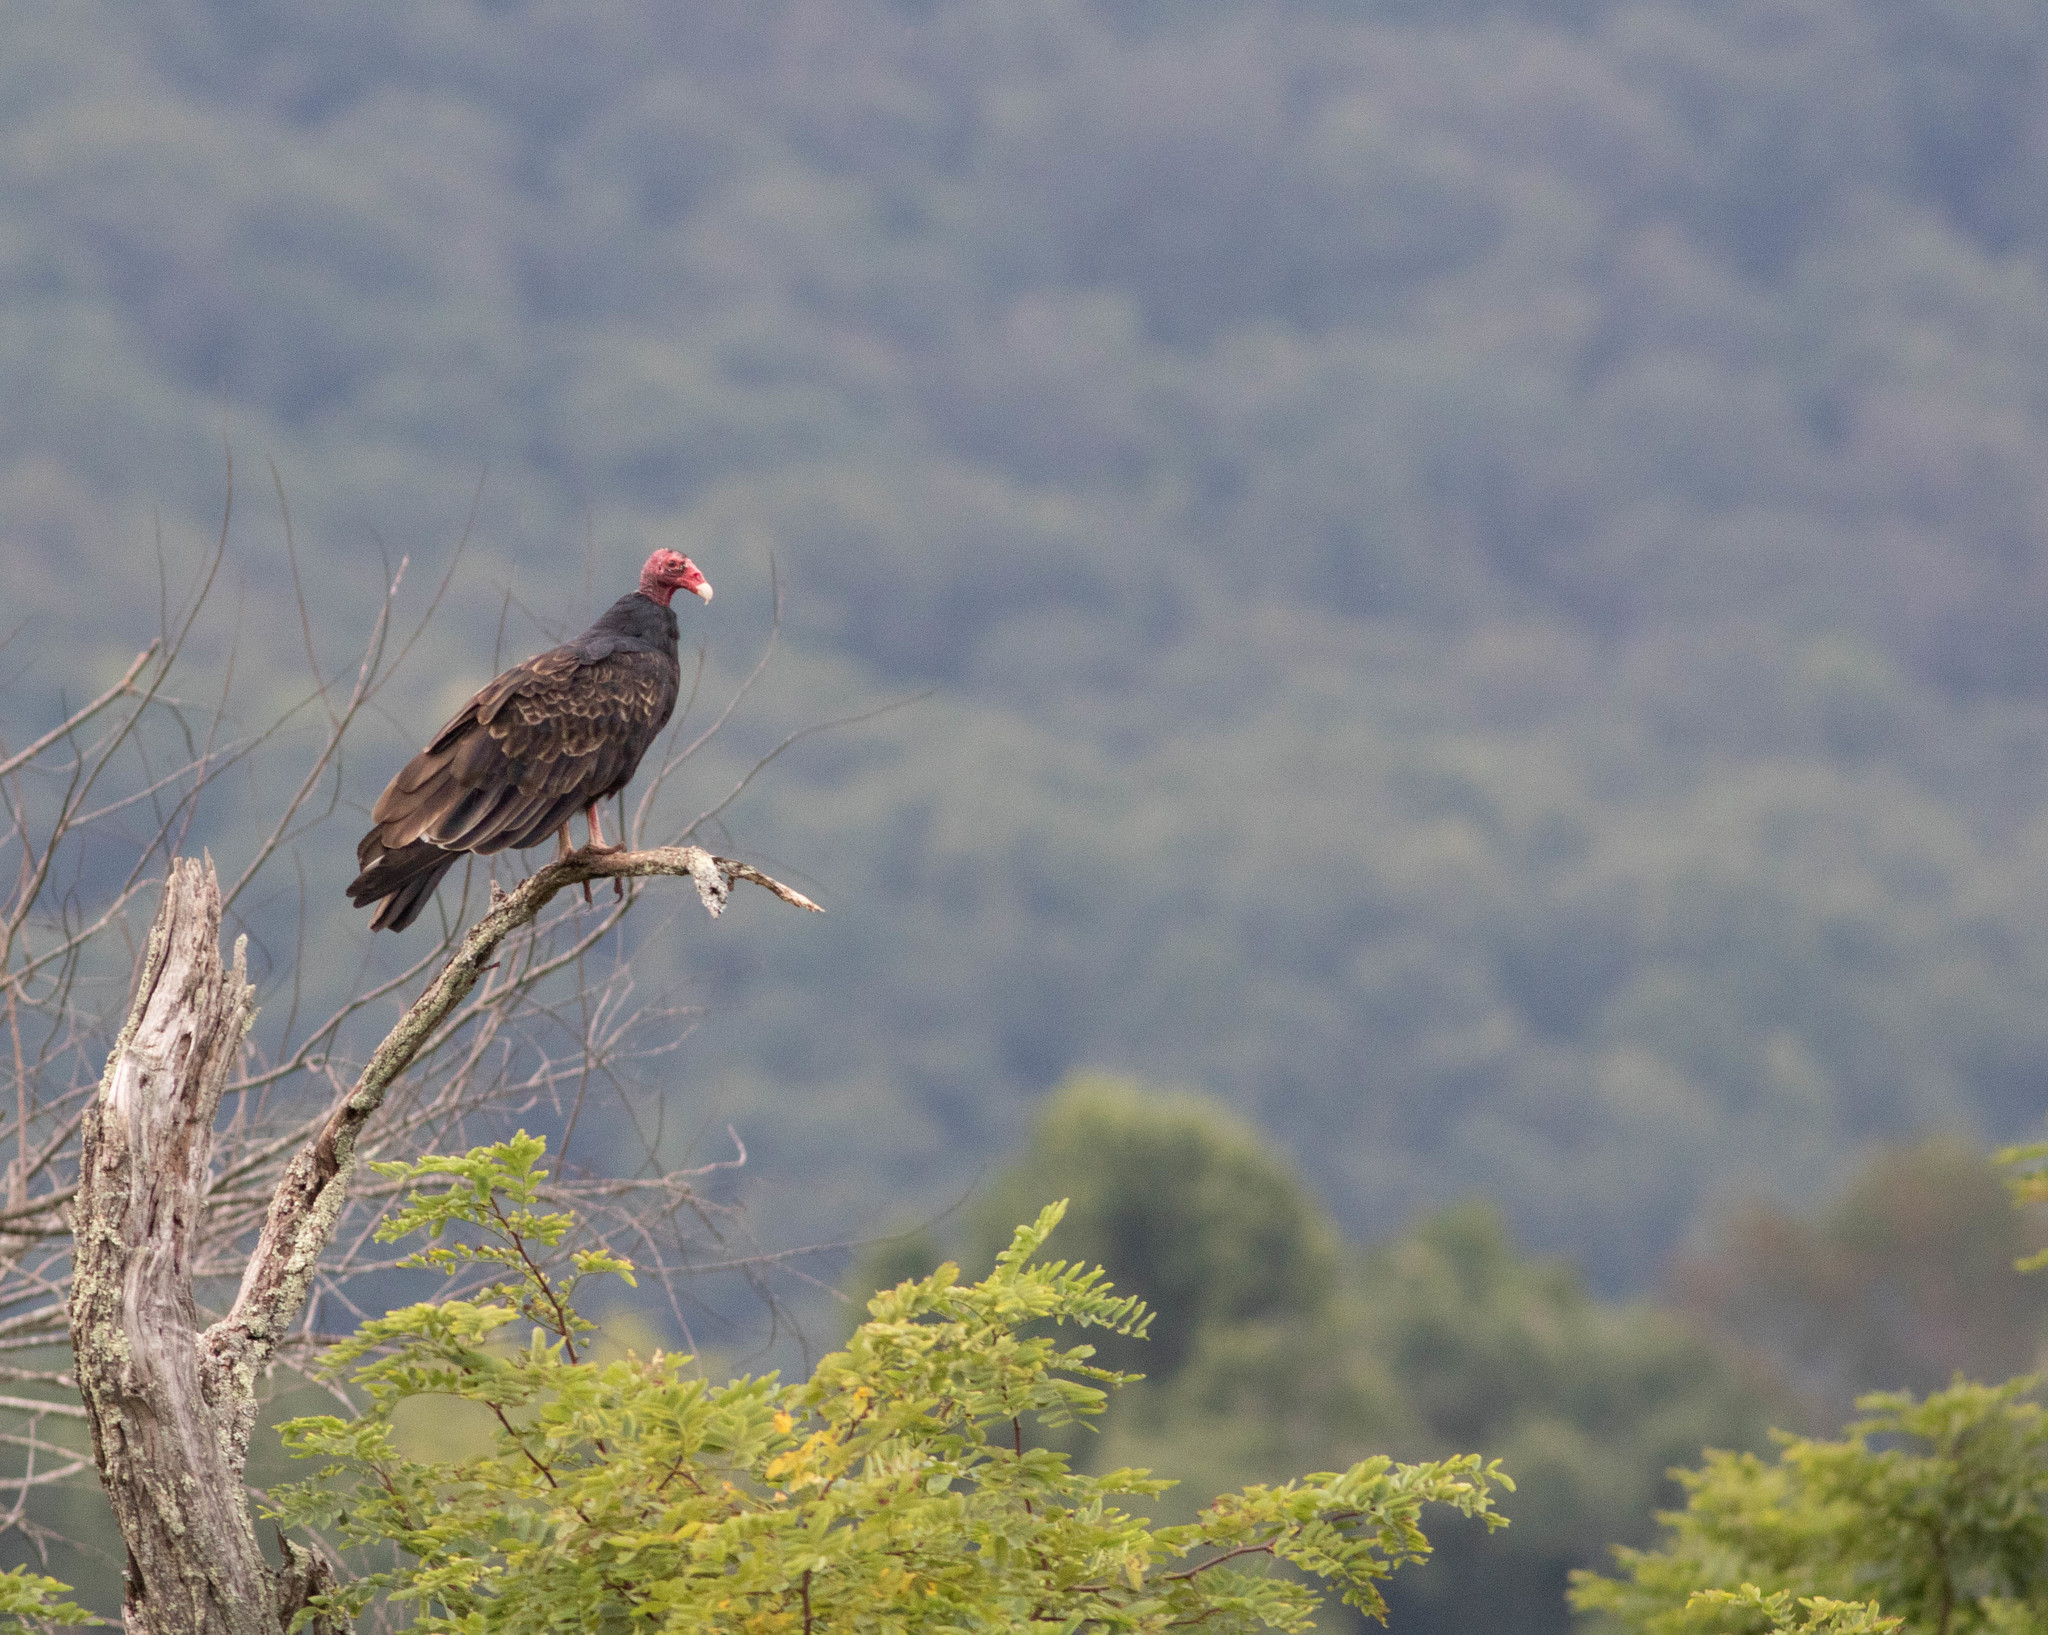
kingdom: Animalia
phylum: Chordata
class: Aves
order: Accipitriformes
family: Cathartidae
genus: Cathartes
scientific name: Cathartes aura
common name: Turkey vulture
